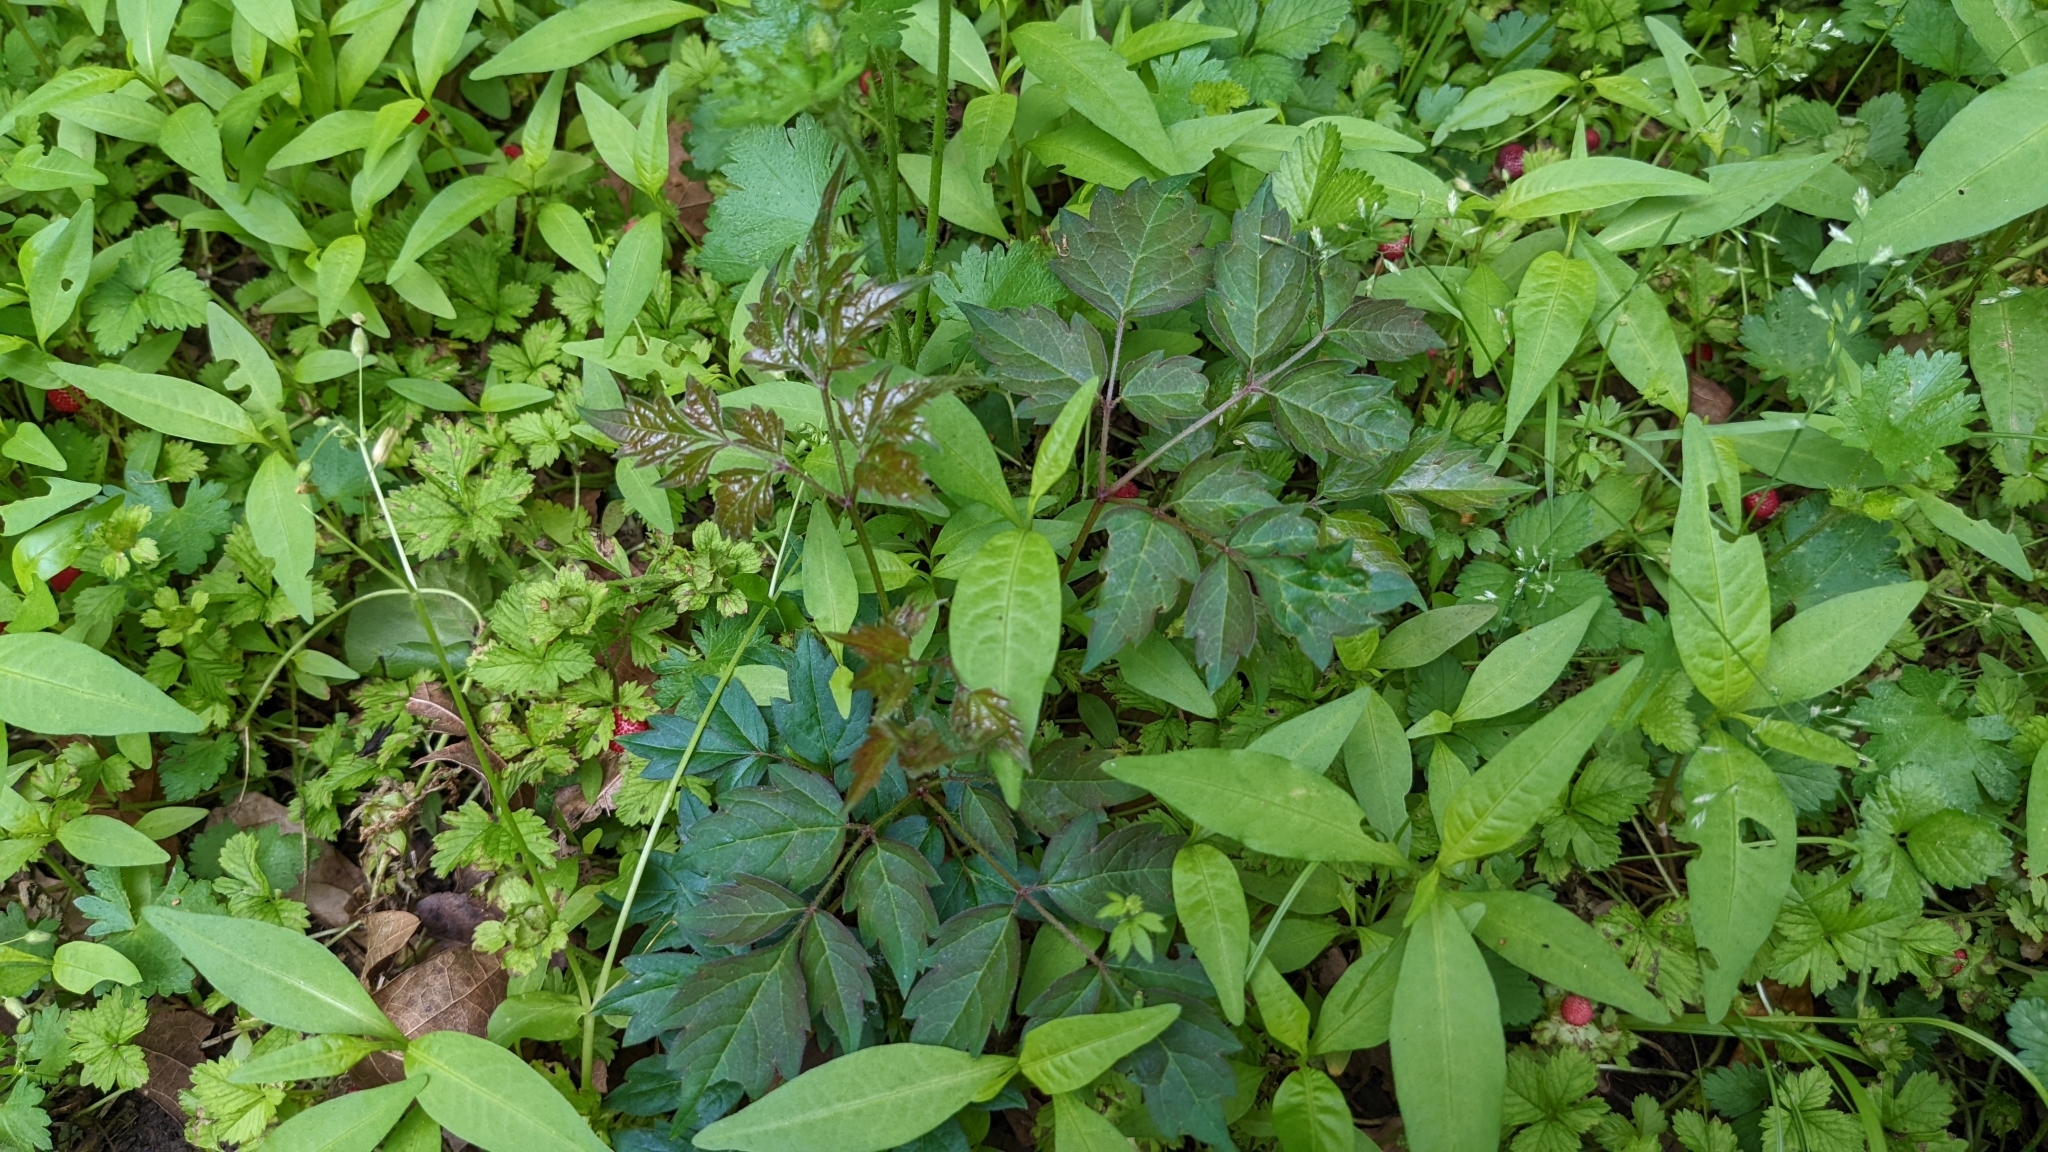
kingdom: Plantae
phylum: Tracheophyta
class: Magnoliopsida
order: Vitales
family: Vitaceae
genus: Nekemias
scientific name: Nekemias arborea
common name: Peppervine
